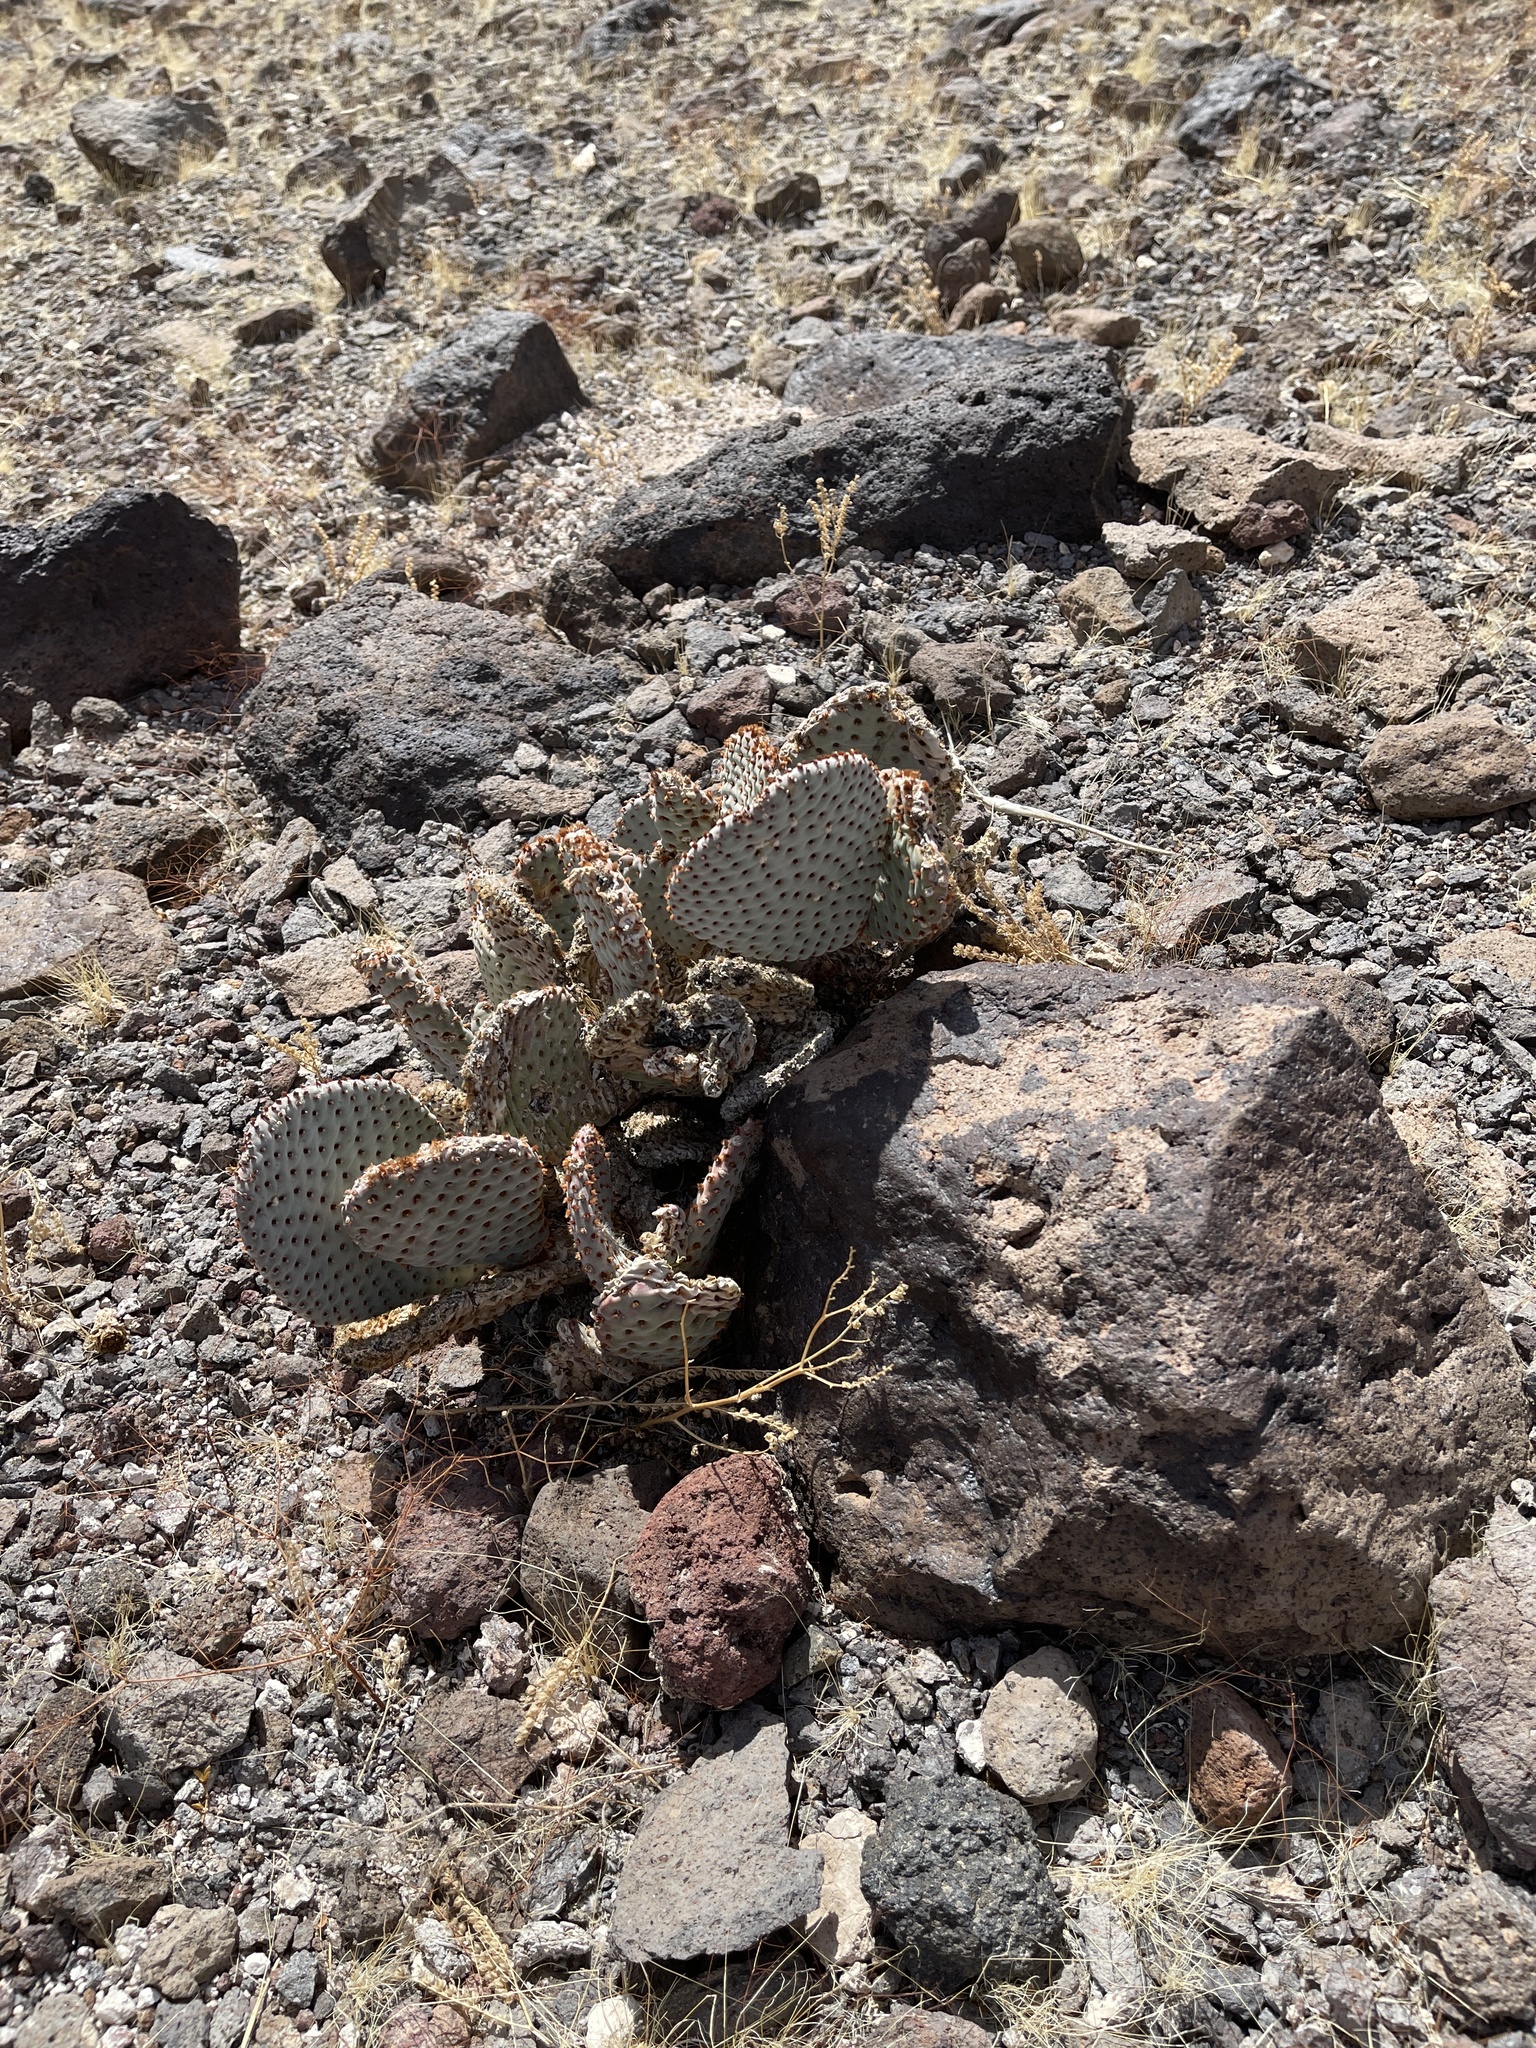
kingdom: Plantae
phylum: Tracheophyta
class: Magnoliopsida
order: Caryophyllales
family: Cactaceae
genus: Opuntia
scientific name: Opuntia basilaris
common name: Beavertail prickly-pear
